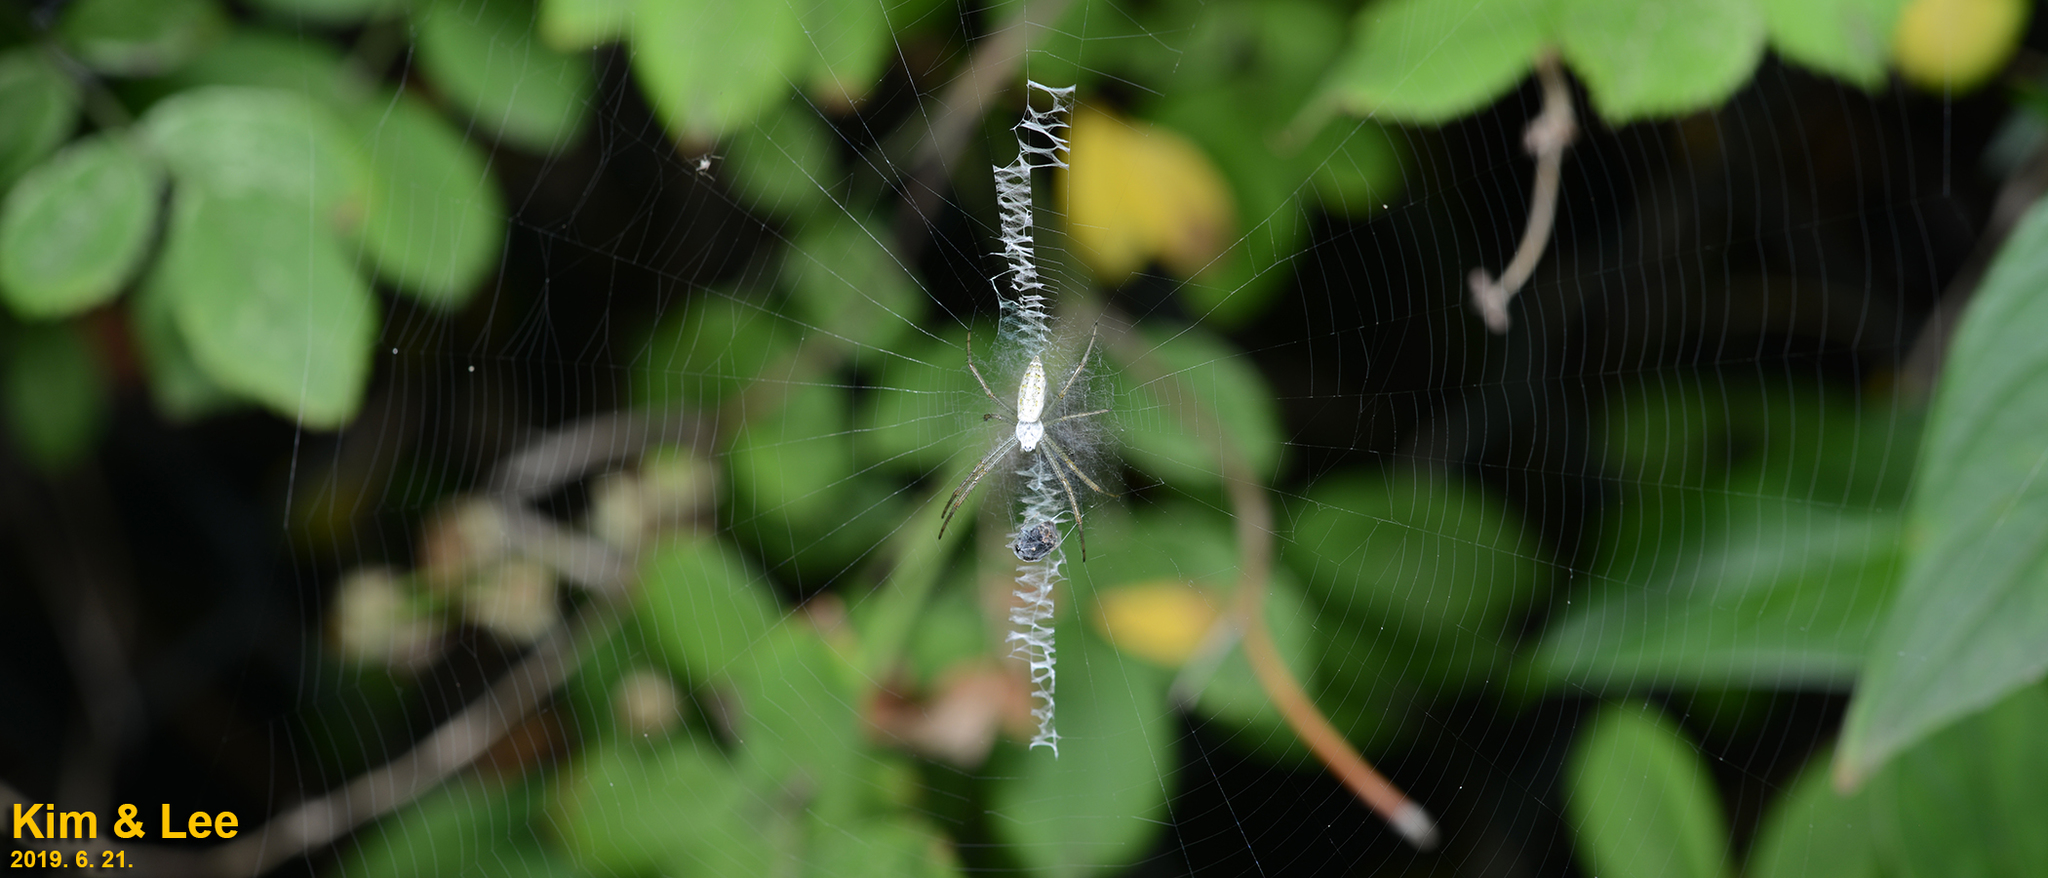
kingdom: Animalia
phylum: Arthropoda
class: Arachnida
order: Araneae
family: Araneidae
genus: Argiope
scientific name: Argiope bruennichi
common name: Wasp spider
